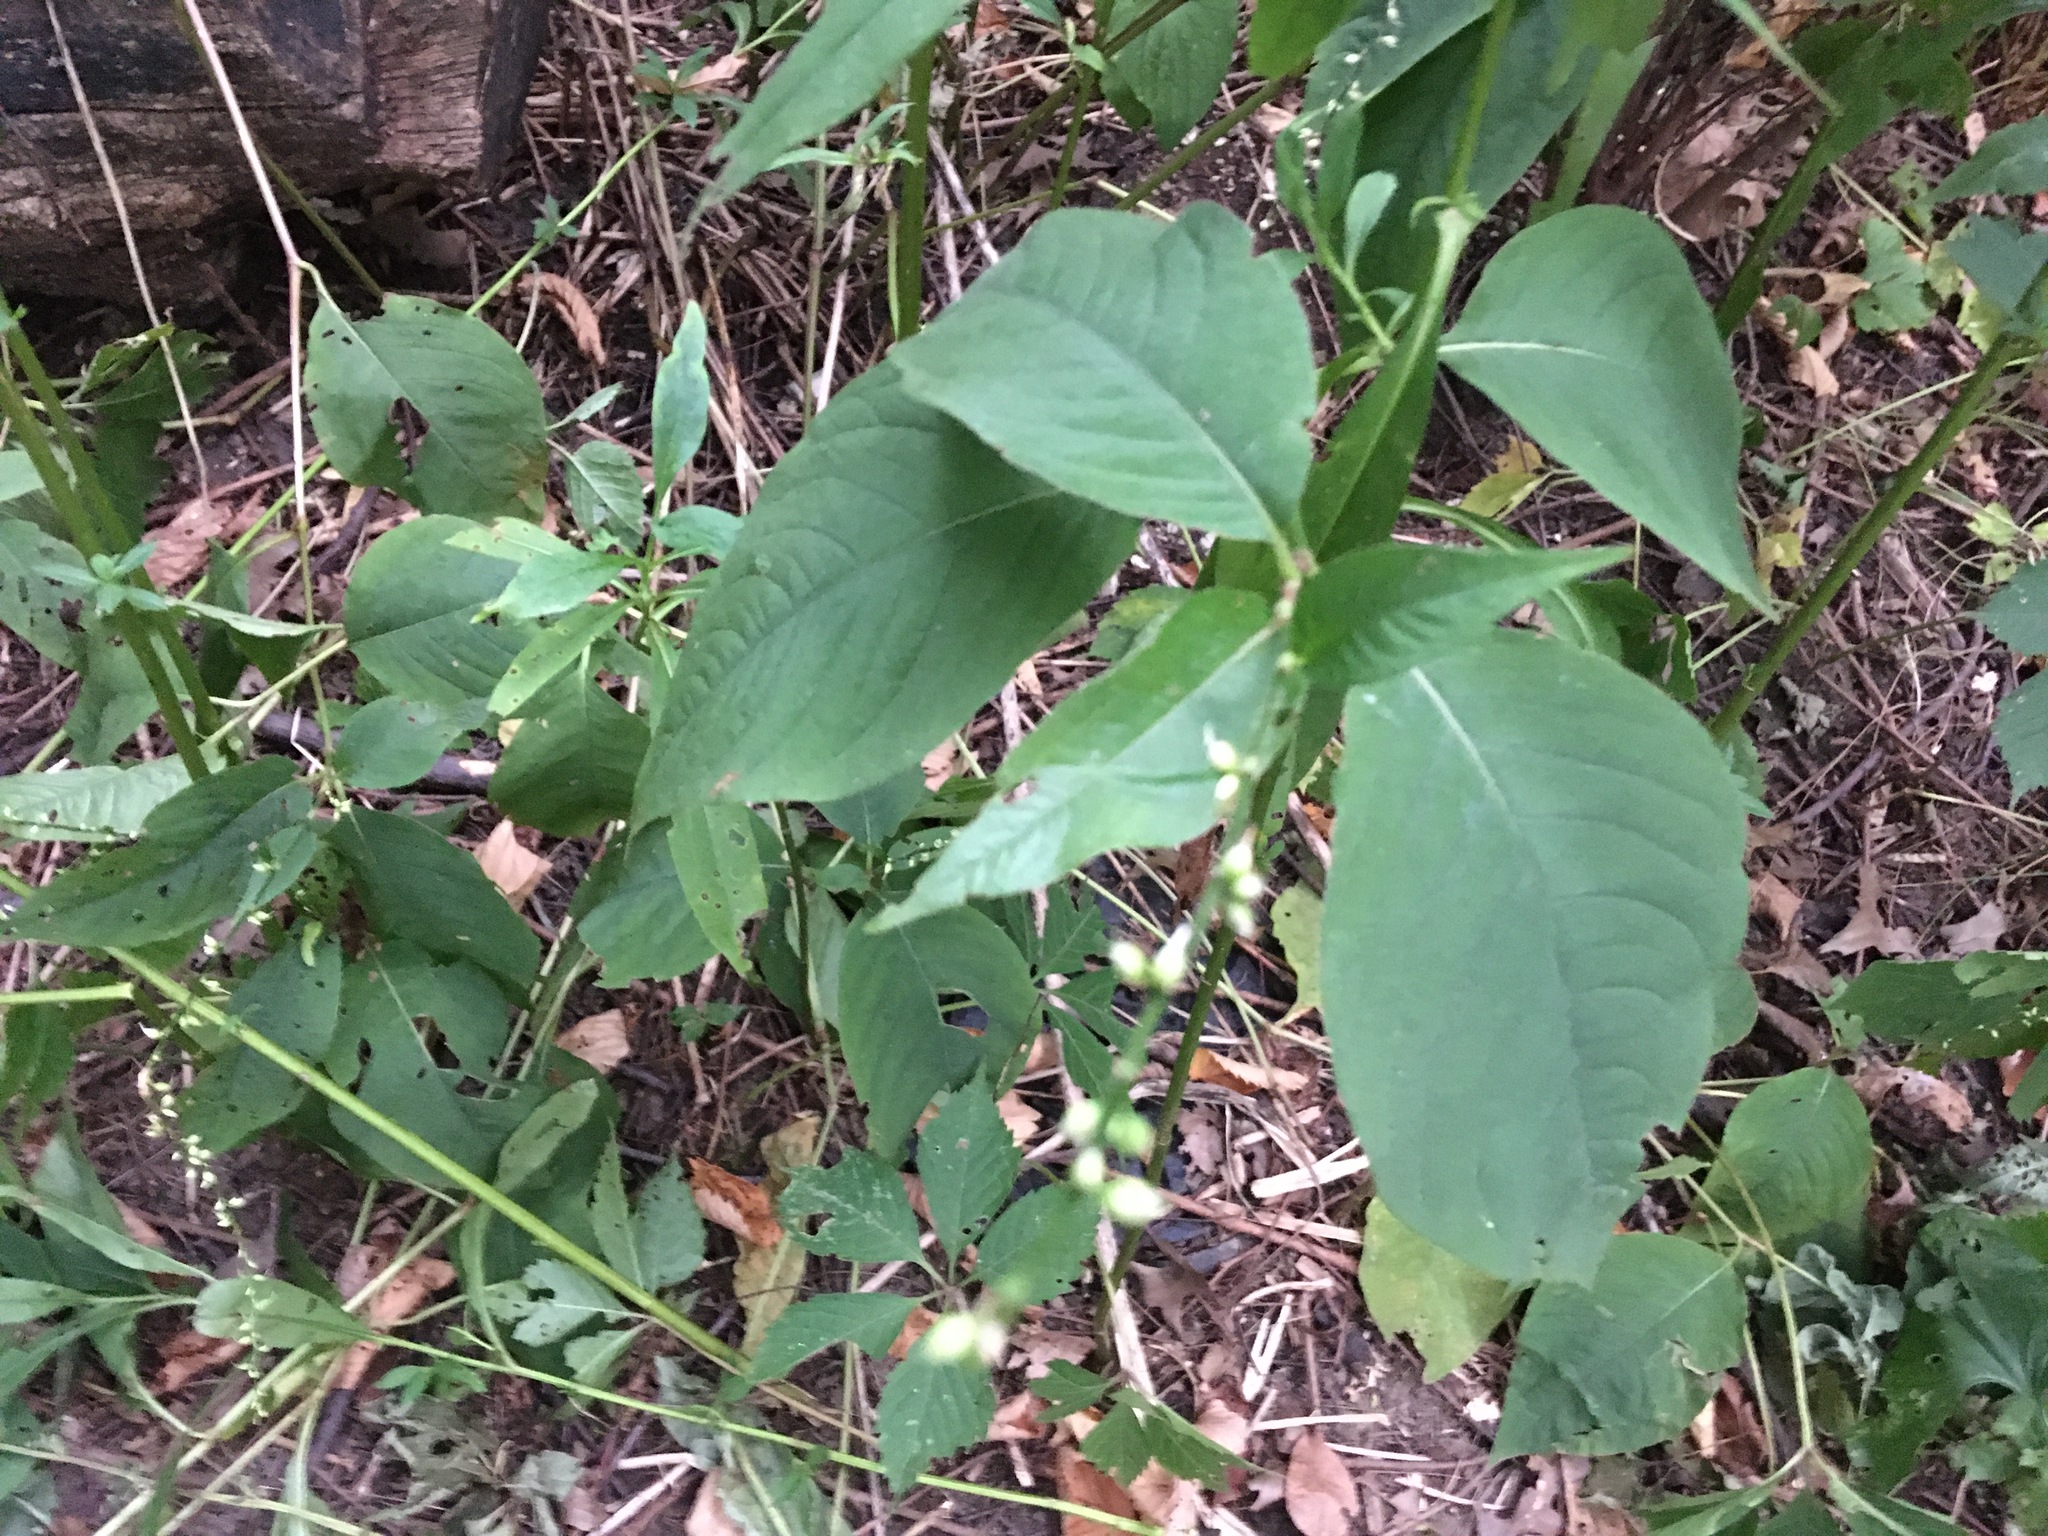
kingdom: Plantae
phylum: Tracheophyta
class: Magnoliopsida
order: Caryophyllales
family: Polygonaceae
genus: Persicaria
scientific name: Persicaria virginiana
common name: Jumpseed
